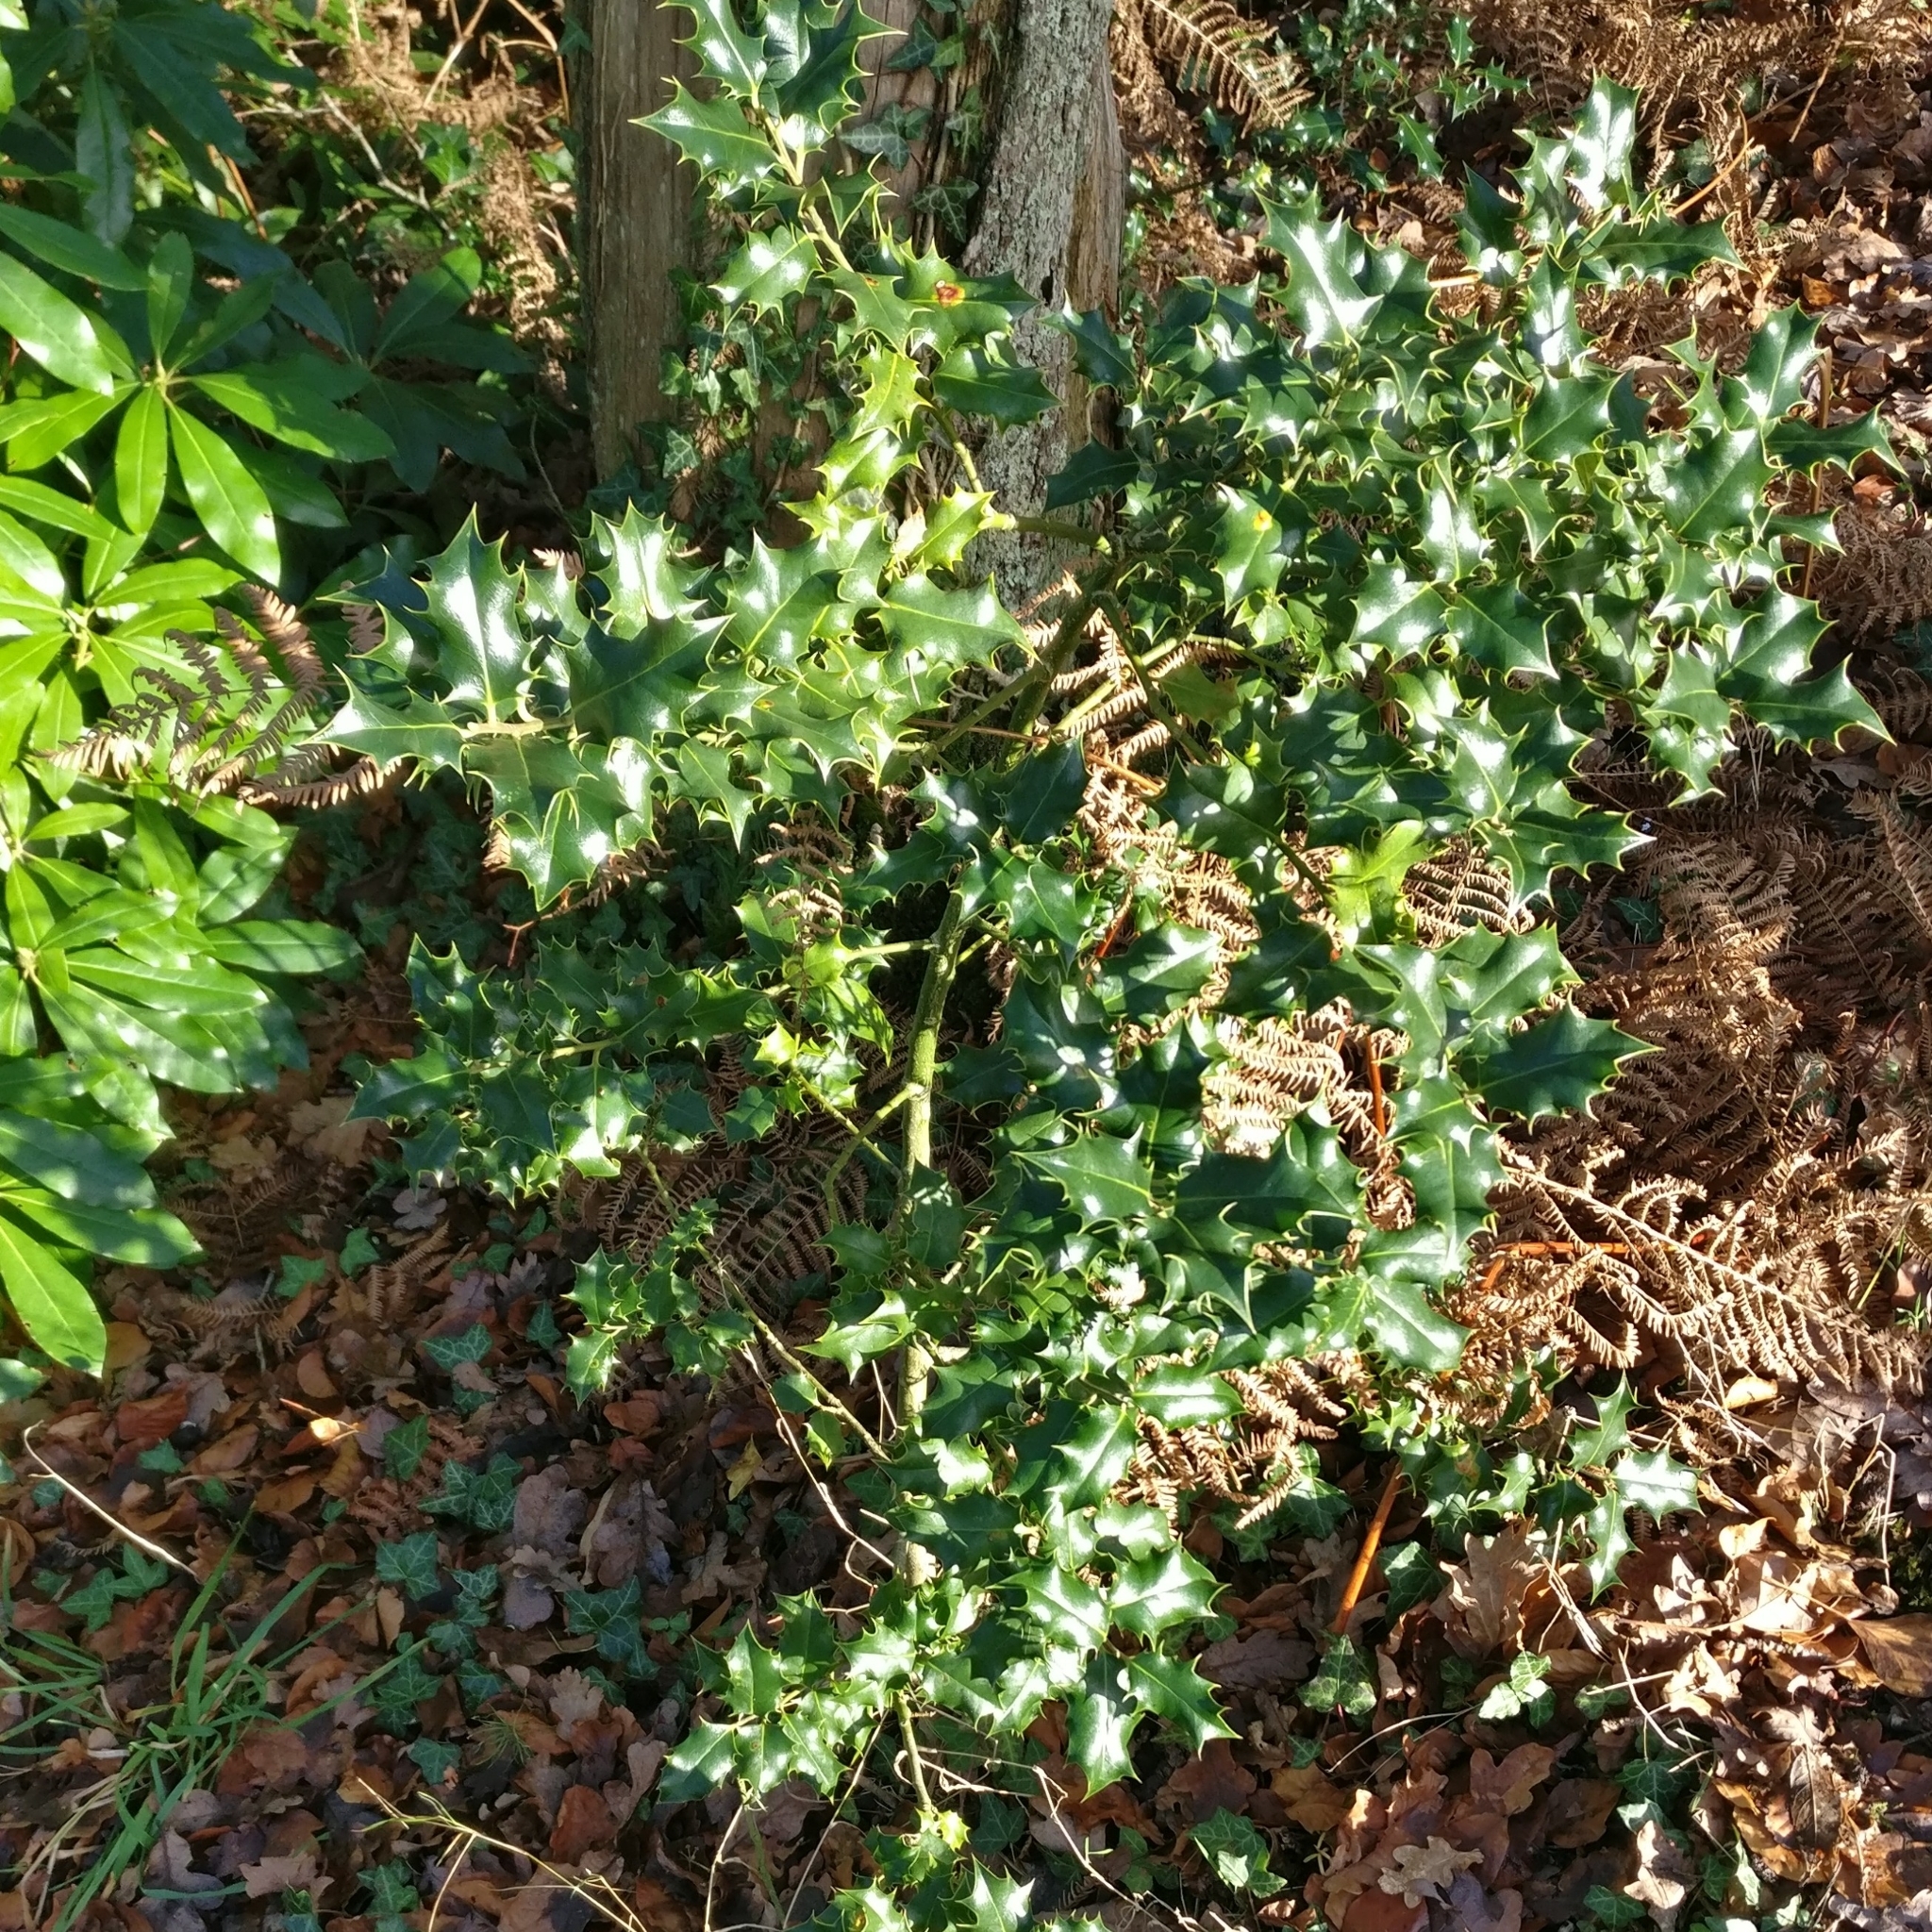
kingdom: Plantae
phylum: Tracheophyta
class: Magnoliopsida
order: Aquifoliales
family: Aquifoliaceae
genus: Ilex
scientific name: Ilex aquifolium
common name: English holly
